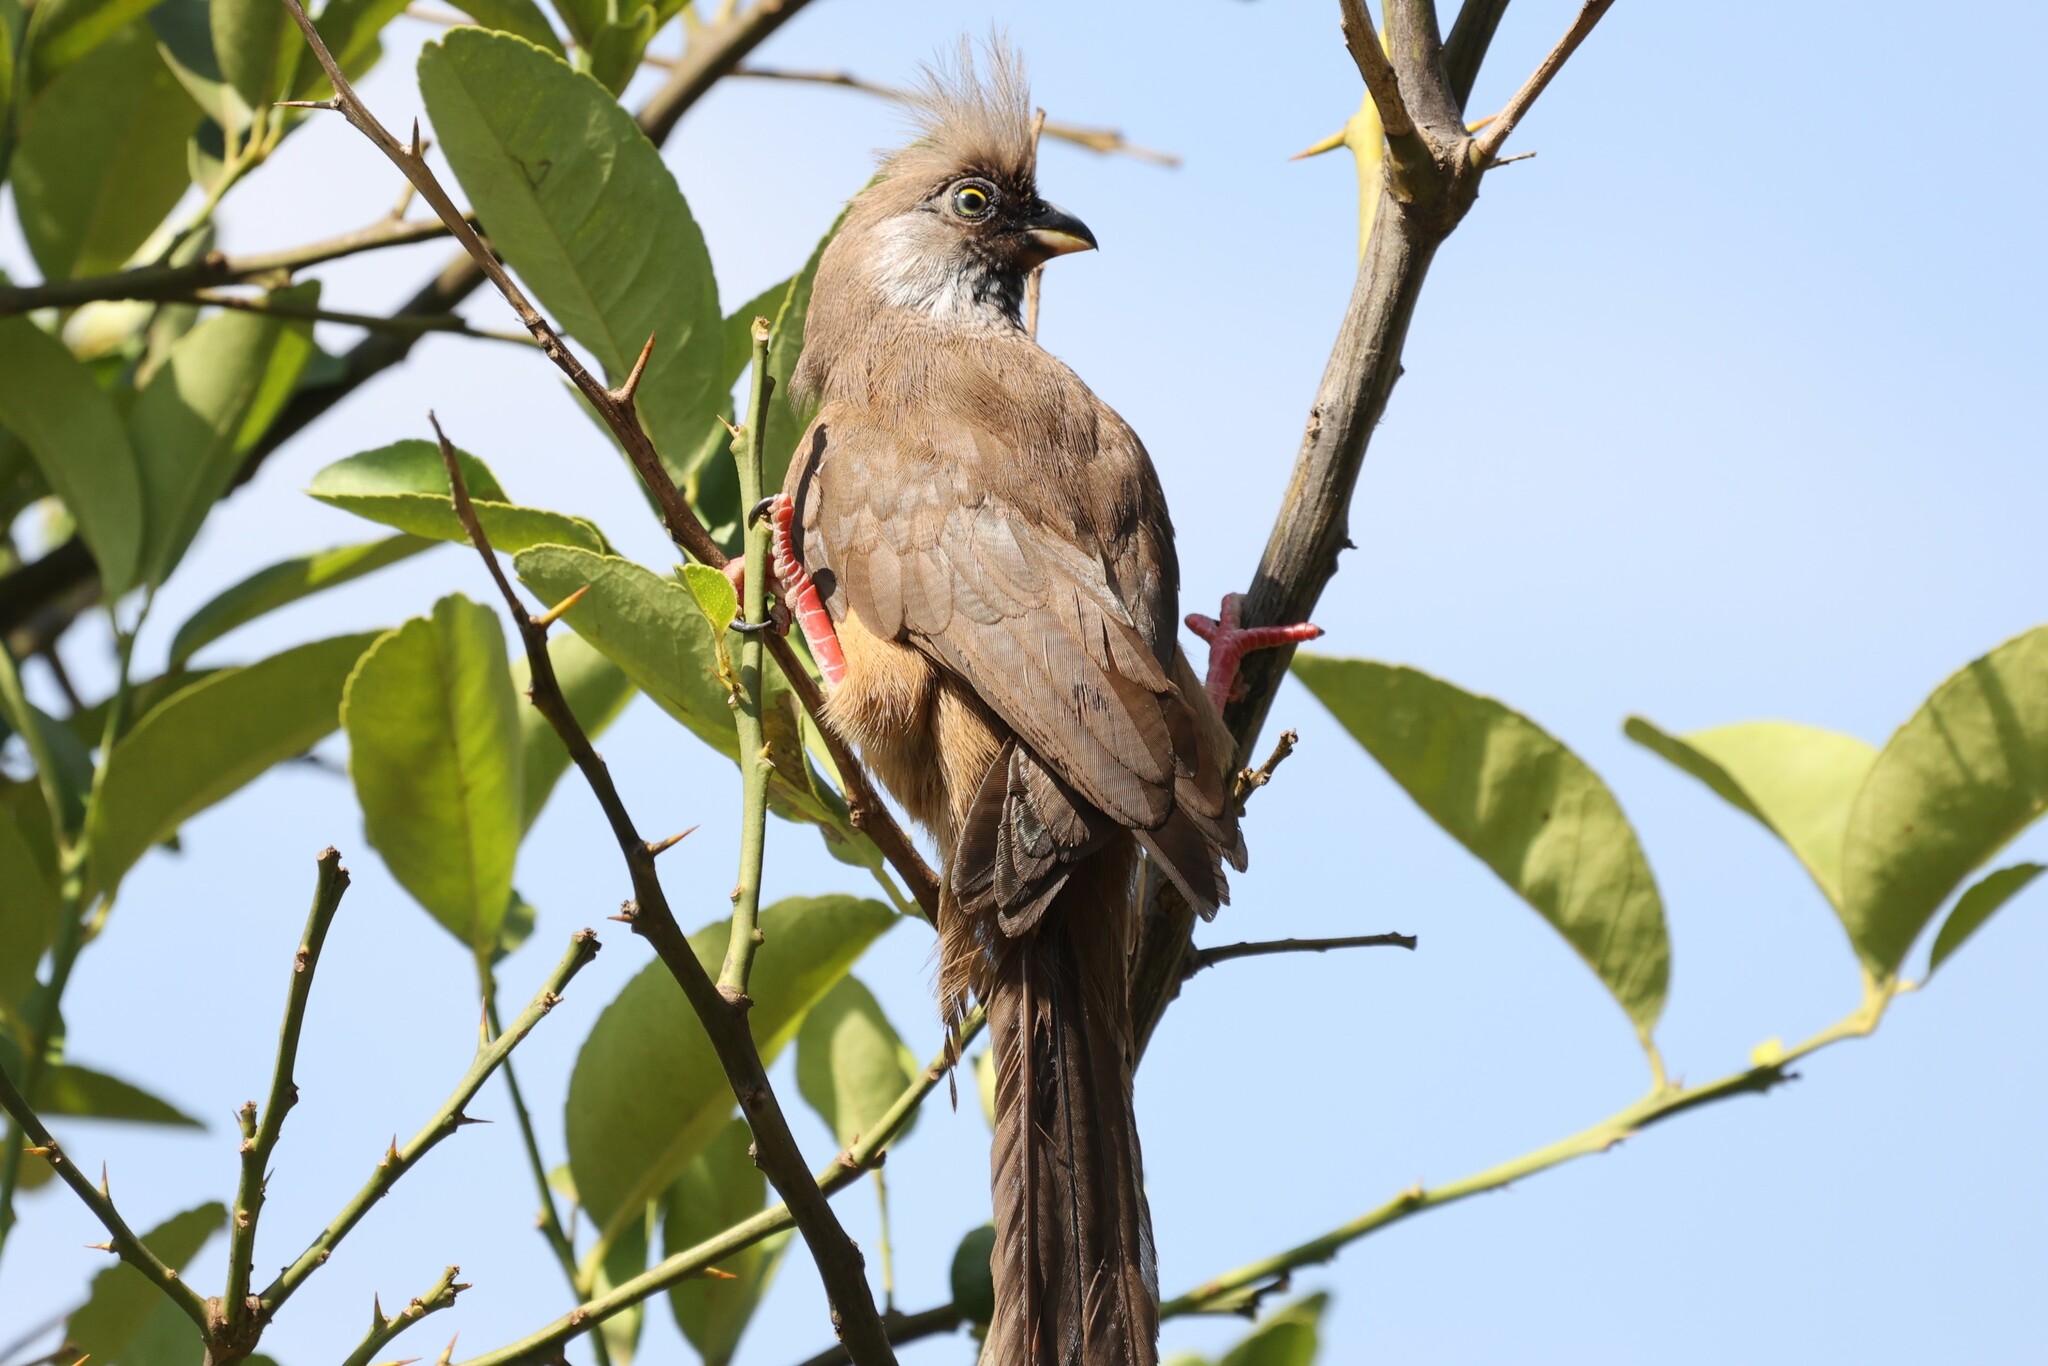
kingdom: Animalia
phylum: Chordata
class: Aves
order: Coliiformes
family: Coliidae
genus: Colius
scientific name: Colius striatus
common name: Speckled mousebird
